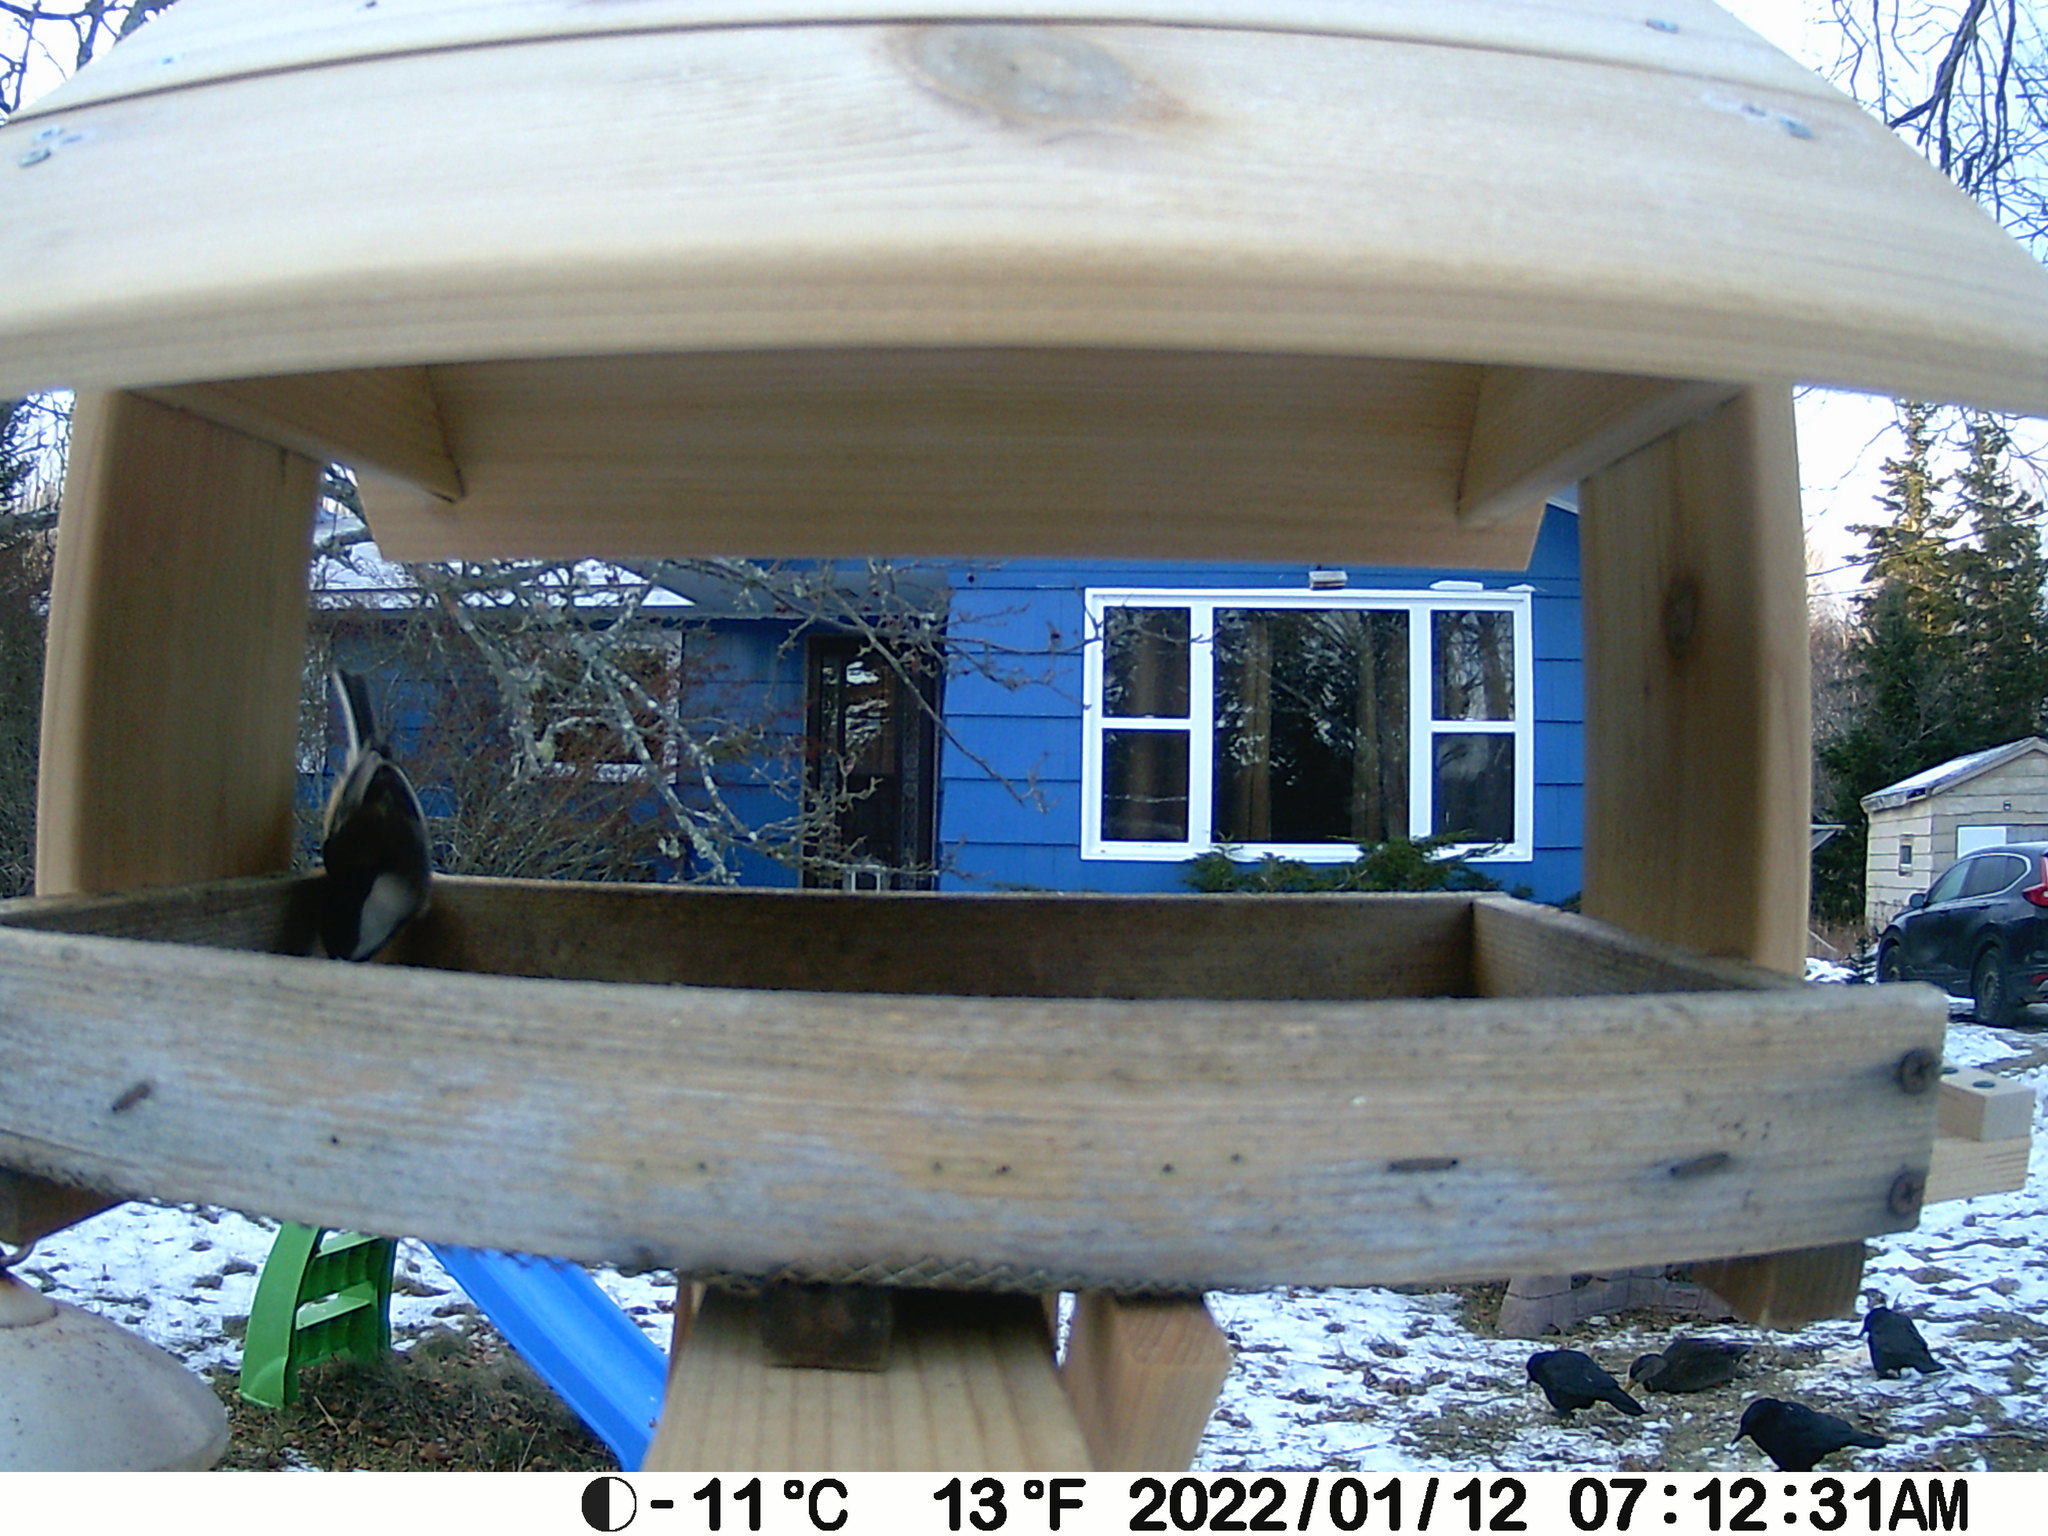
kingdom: Animalia
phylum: Chordata
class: Aves
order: Passeriformes
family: Paridae
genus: Poecile
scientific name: Poecile atricapillus
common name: Black-capped chickadee
